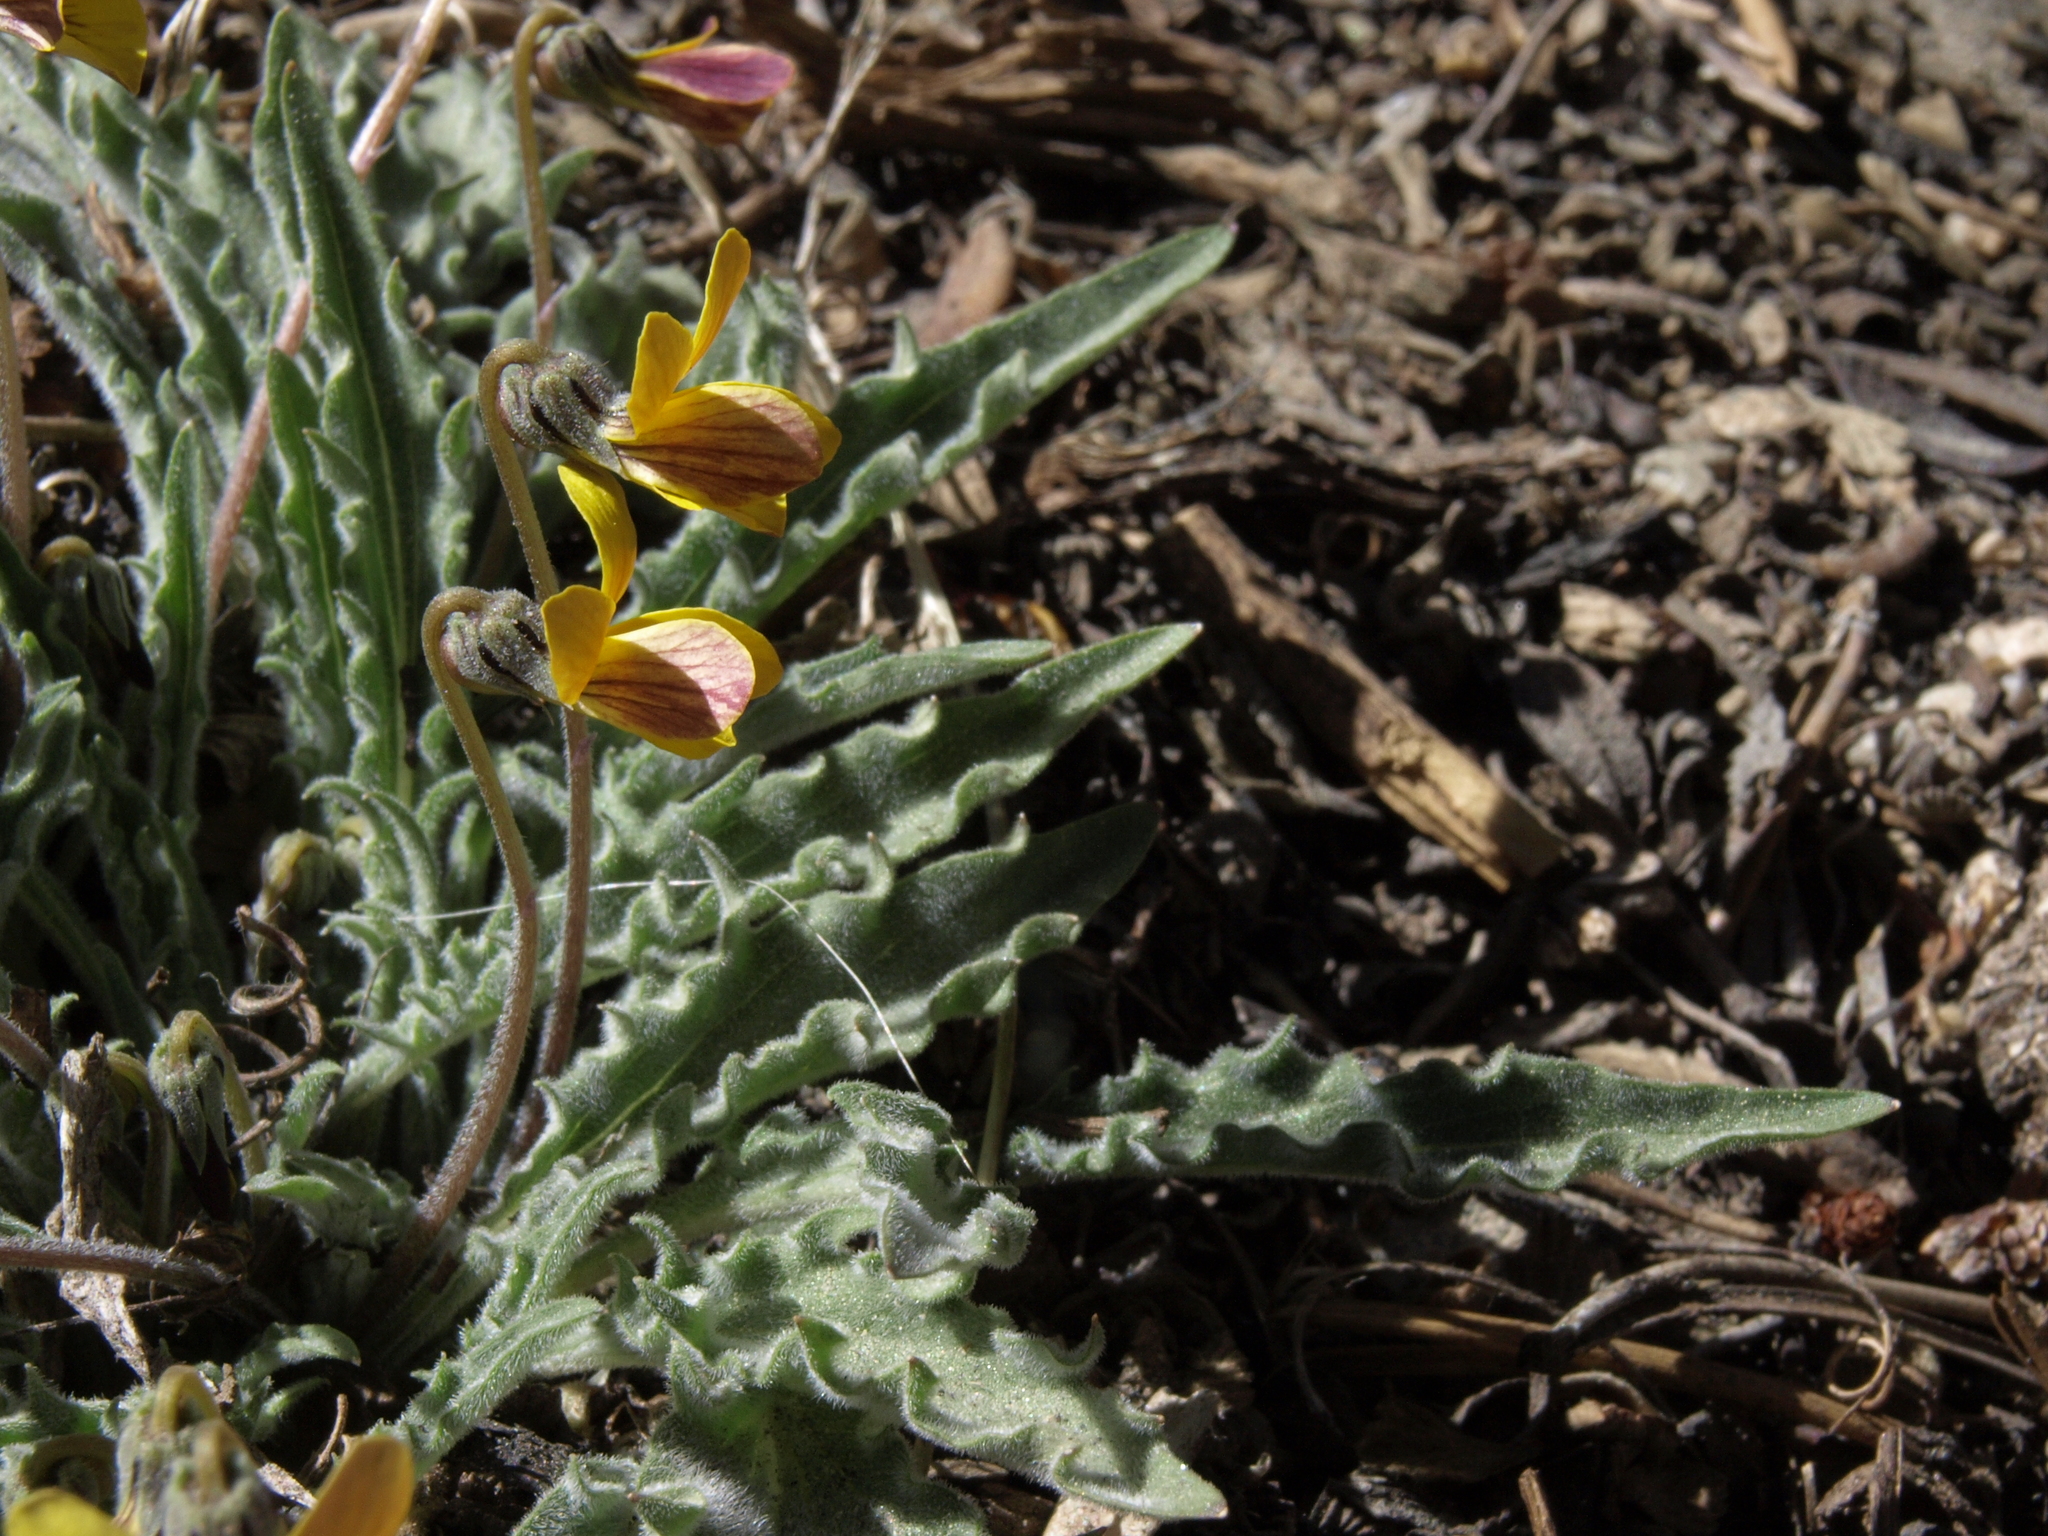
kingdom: Plantae
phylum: Tracheophyta
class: Magnoliopsida
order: Malpighiales
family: Violaceae
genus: Viola
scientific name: Viola pinetorum
